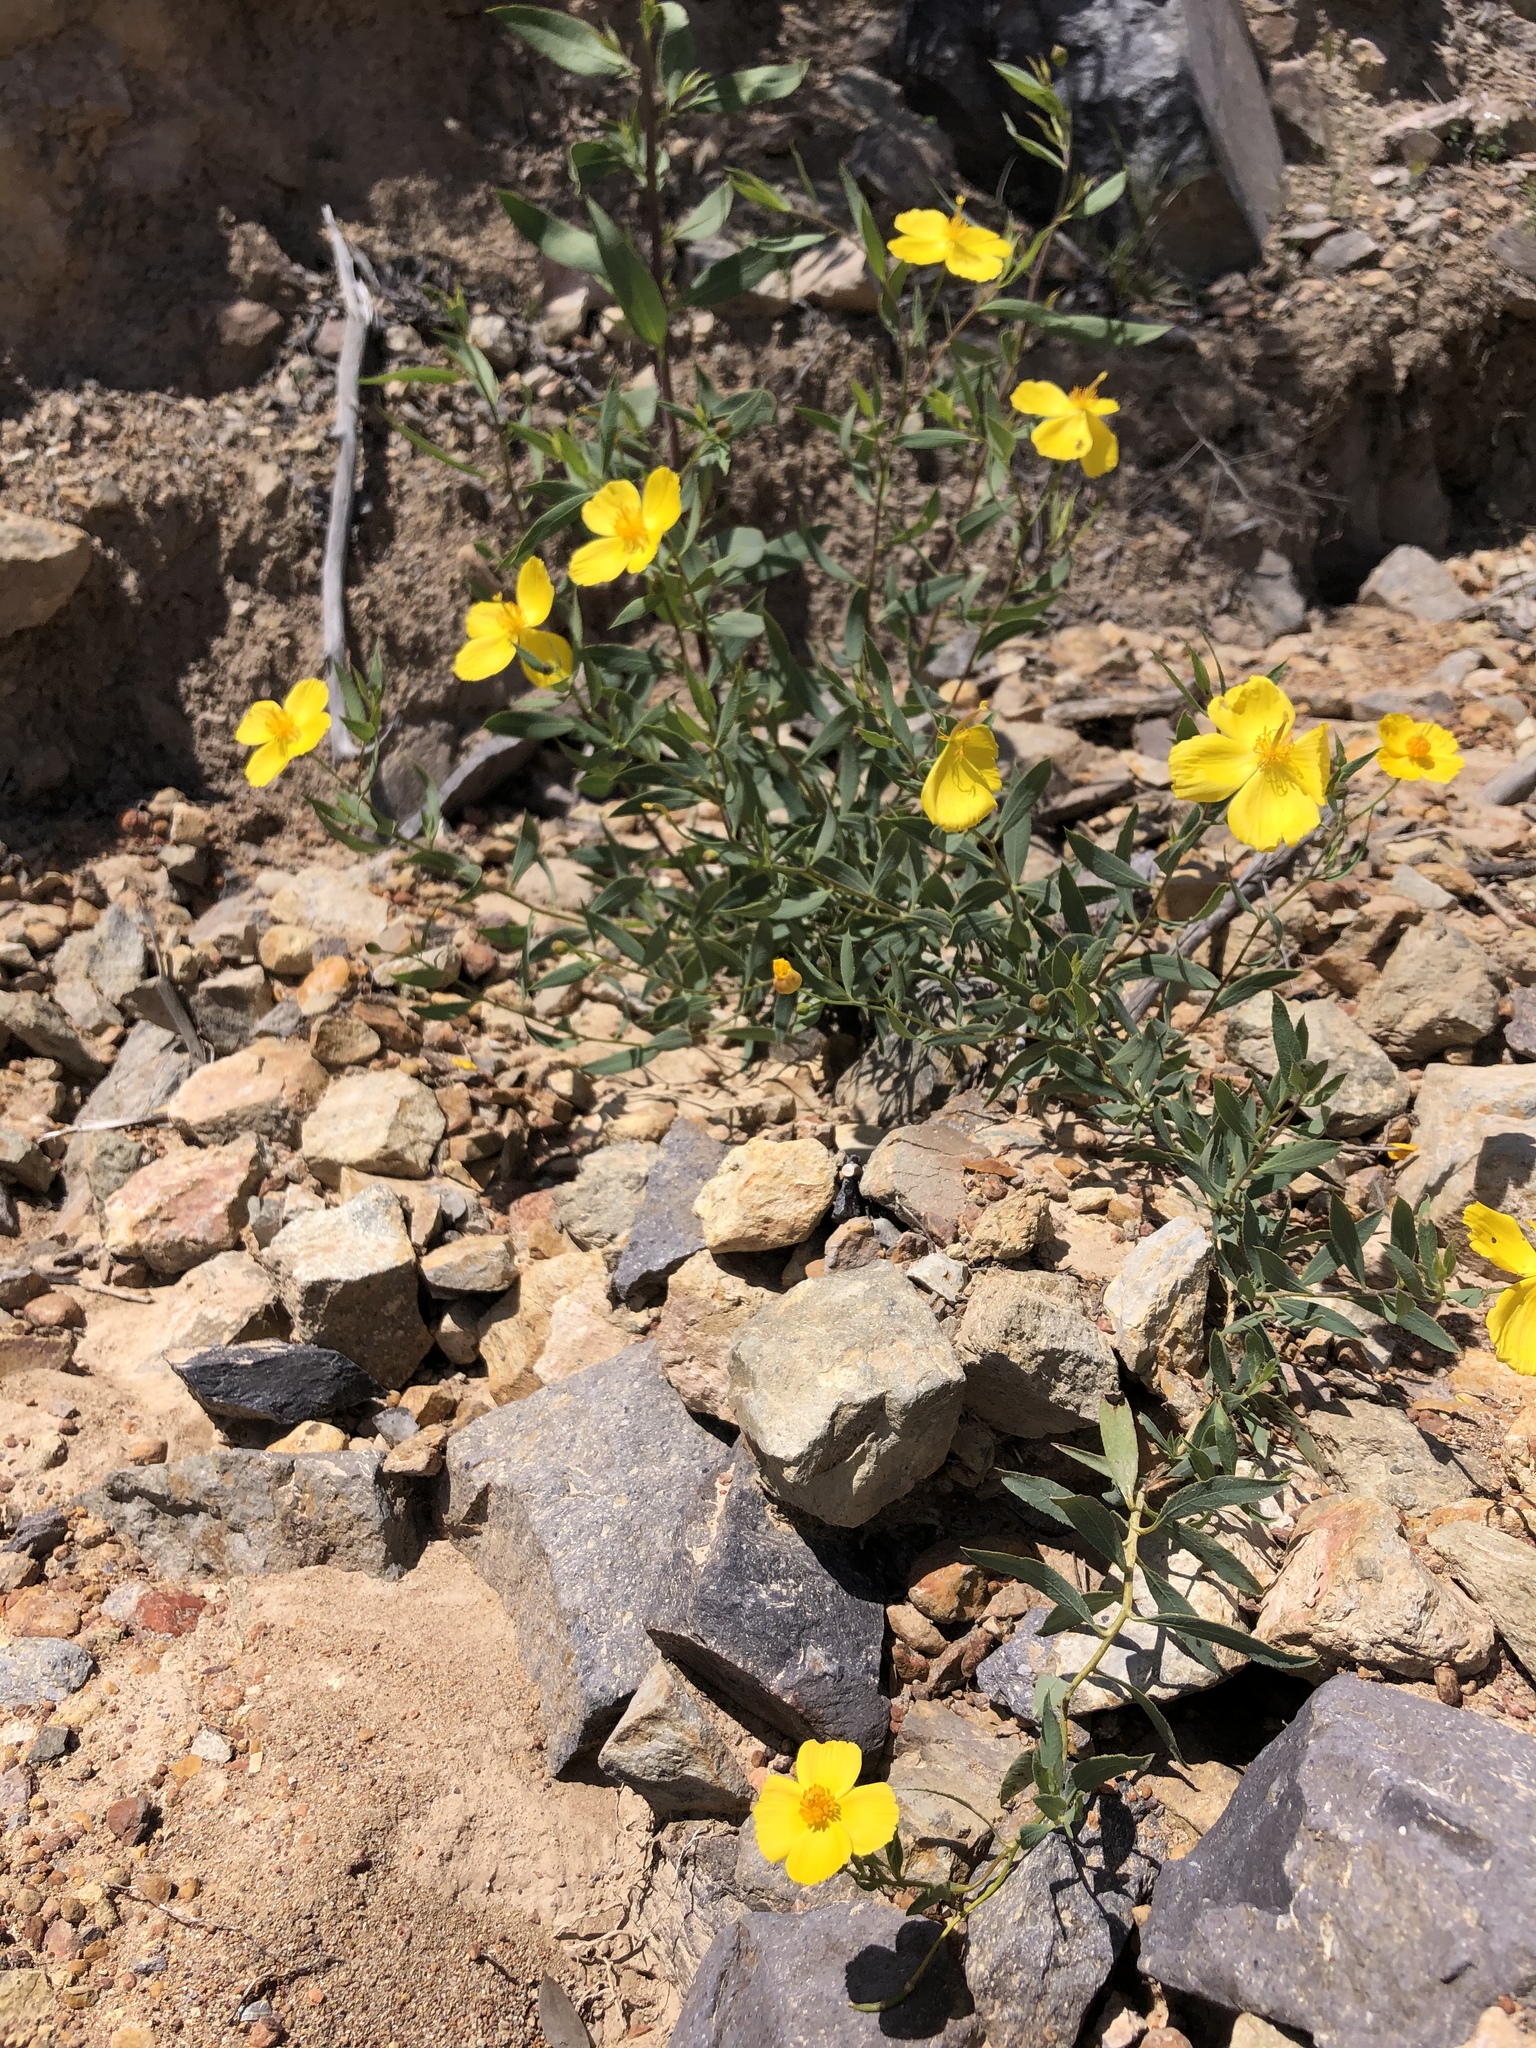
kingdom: Plantae
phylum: Tracheophyta
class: Magnoliopsida
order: Ranunculales
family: Papaveraceae
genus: Dendromecon
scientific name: Dendromecon rigida
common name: Tree poppy
